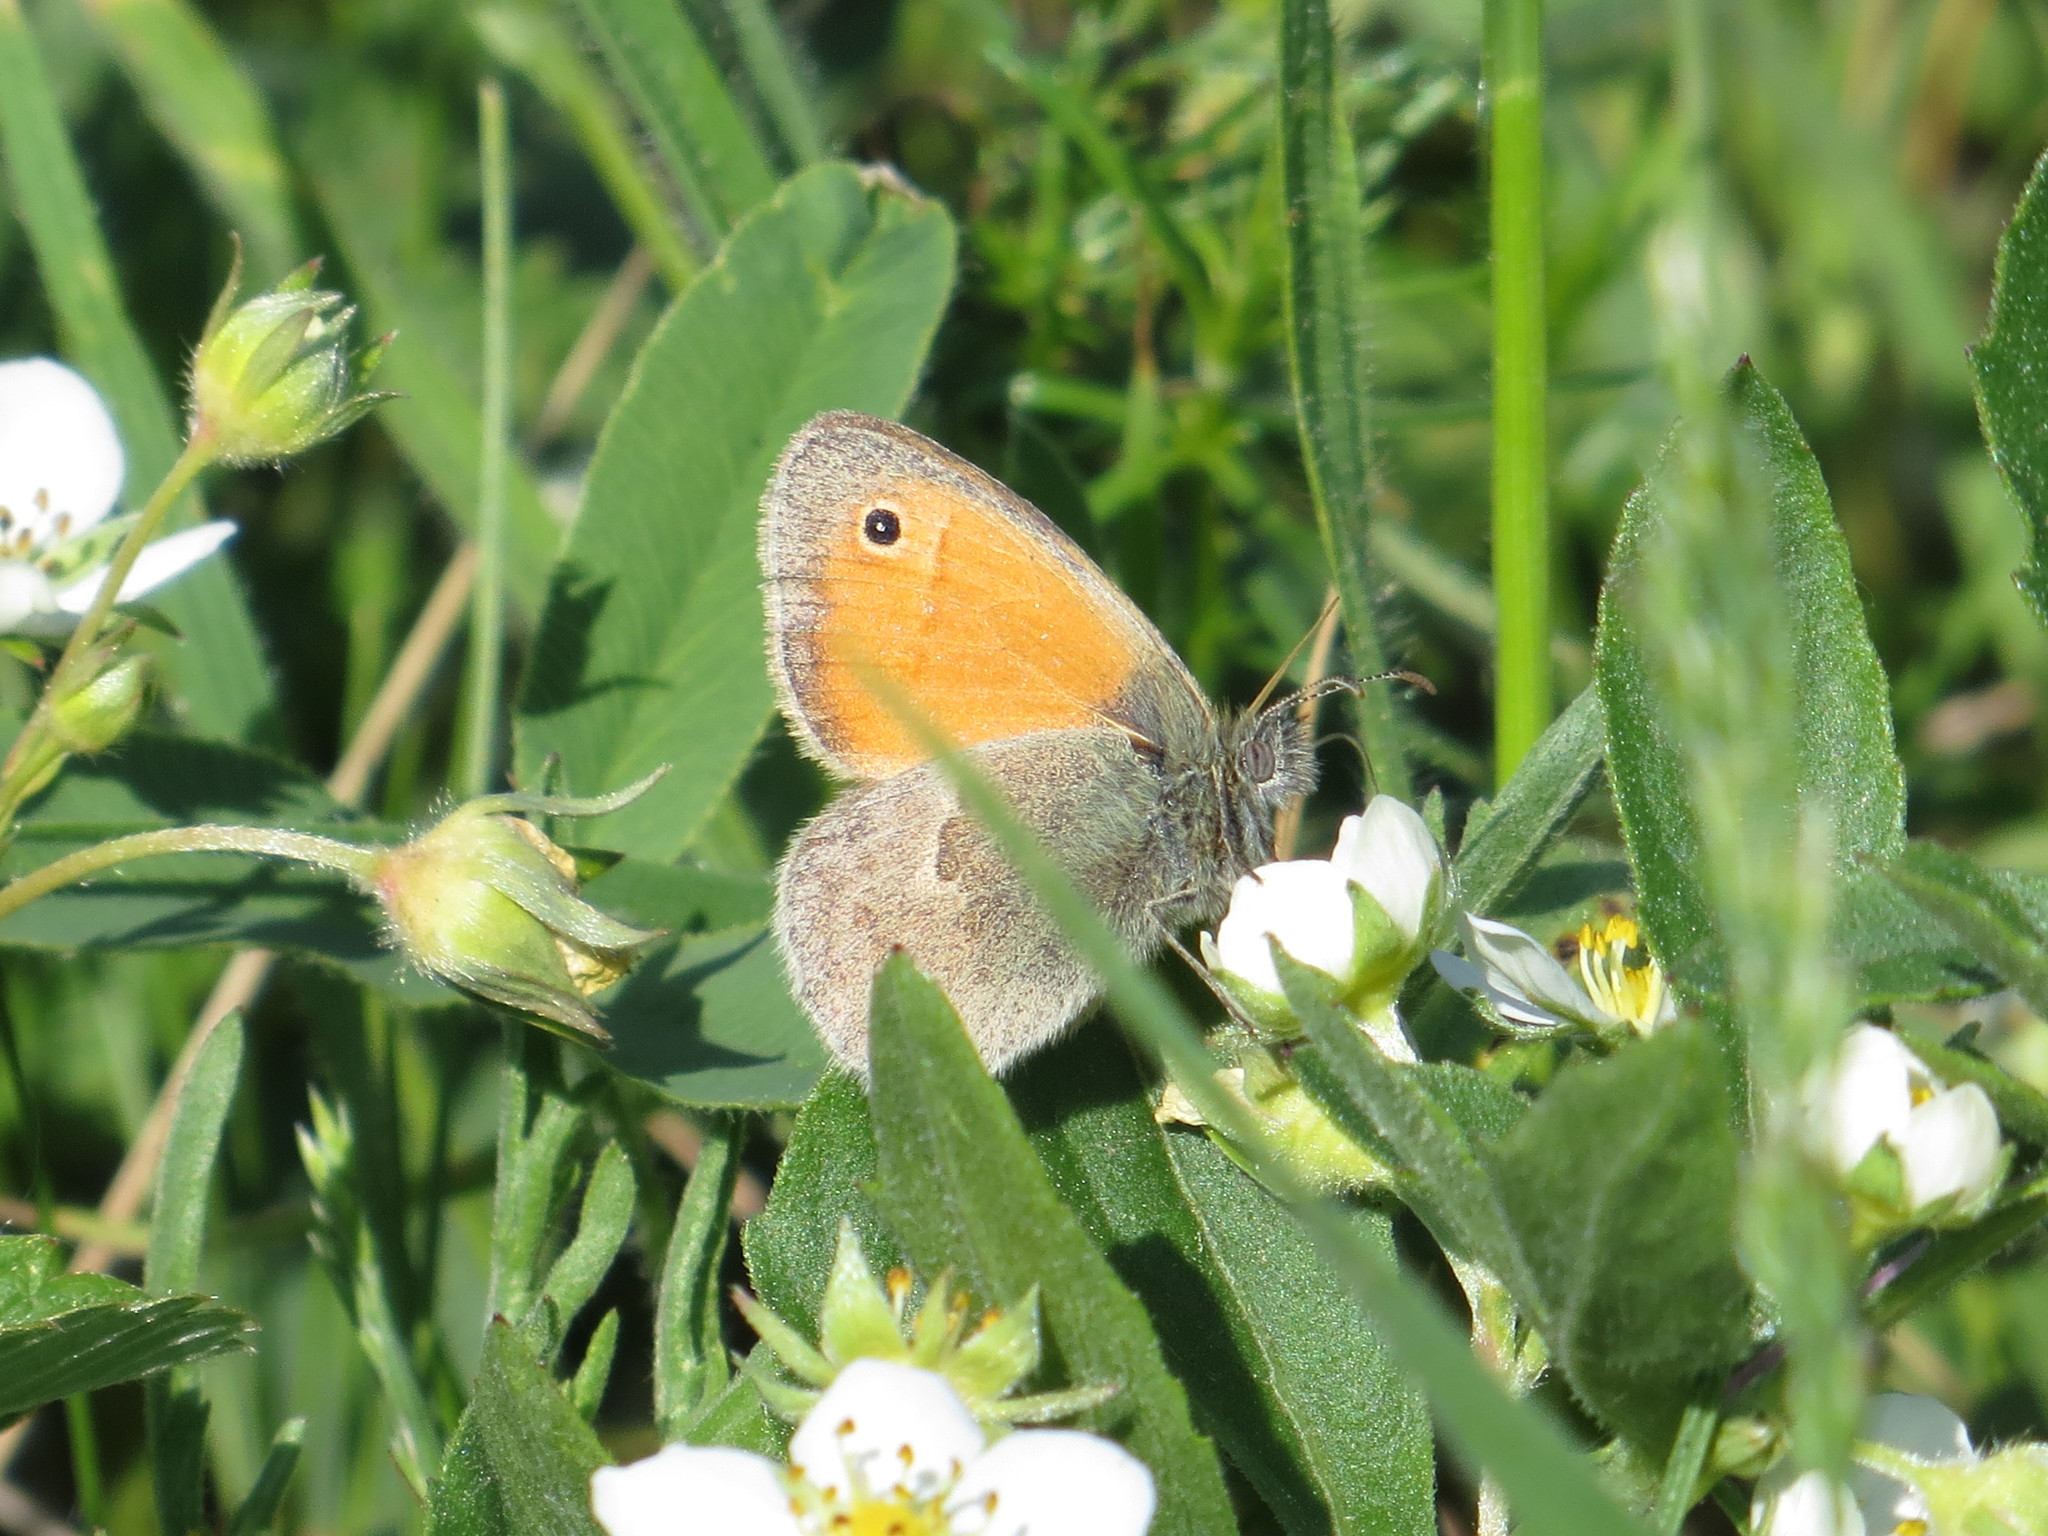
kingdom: Animalia
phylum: Arthropoda
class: Insecta
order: Lepidoptera
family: Nymphalidae
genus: Coenonympha
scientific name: Coenonympha pamphilus
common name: Small heath
